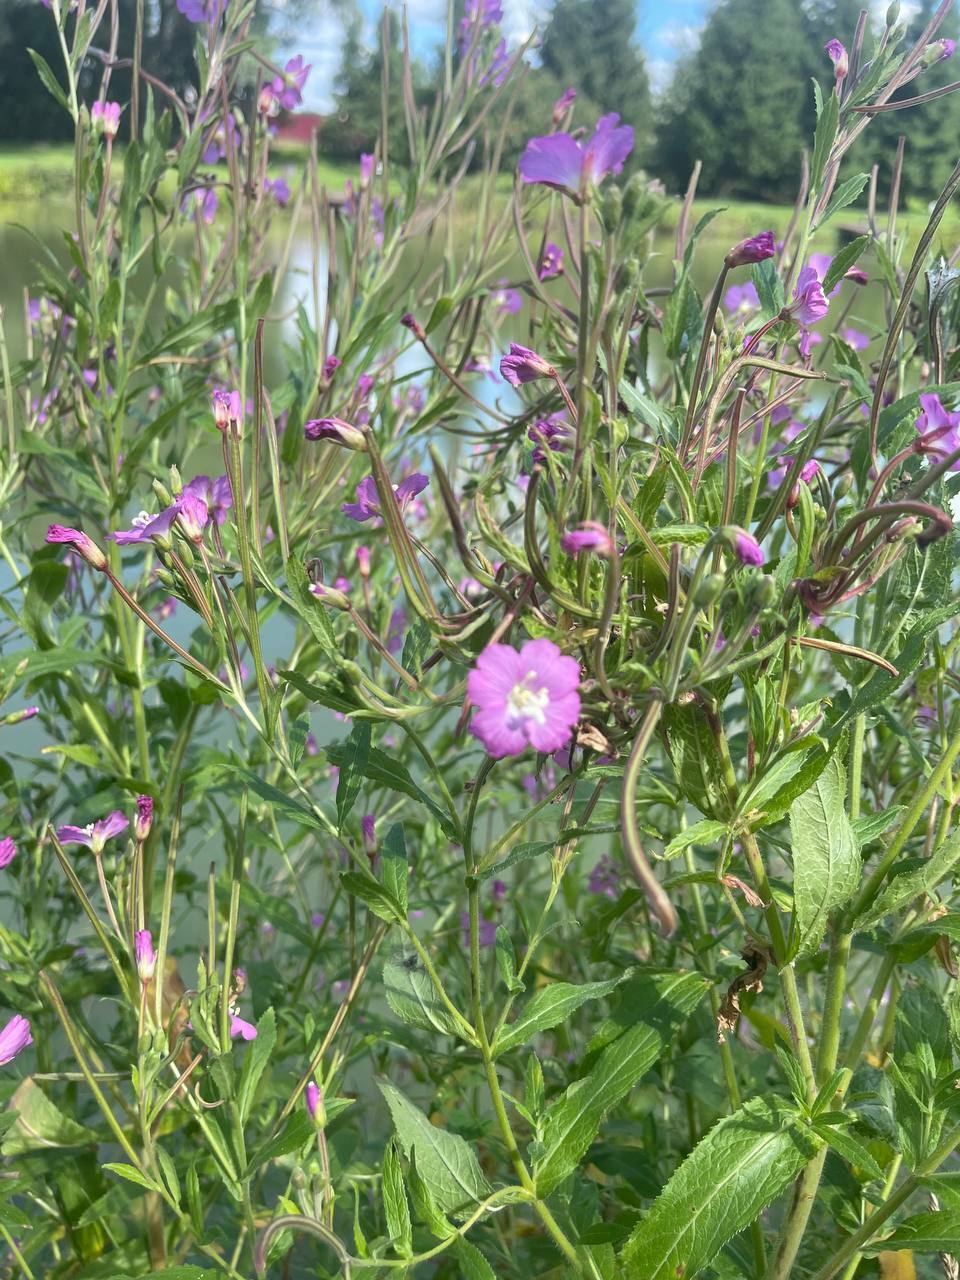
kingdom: Plantae
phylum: Tracheophyta
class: Magnoliopsida
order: Myrtales
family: Onagraceae
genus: Epilobium
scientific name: Epilobium hirsutum
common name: Great willowherb
